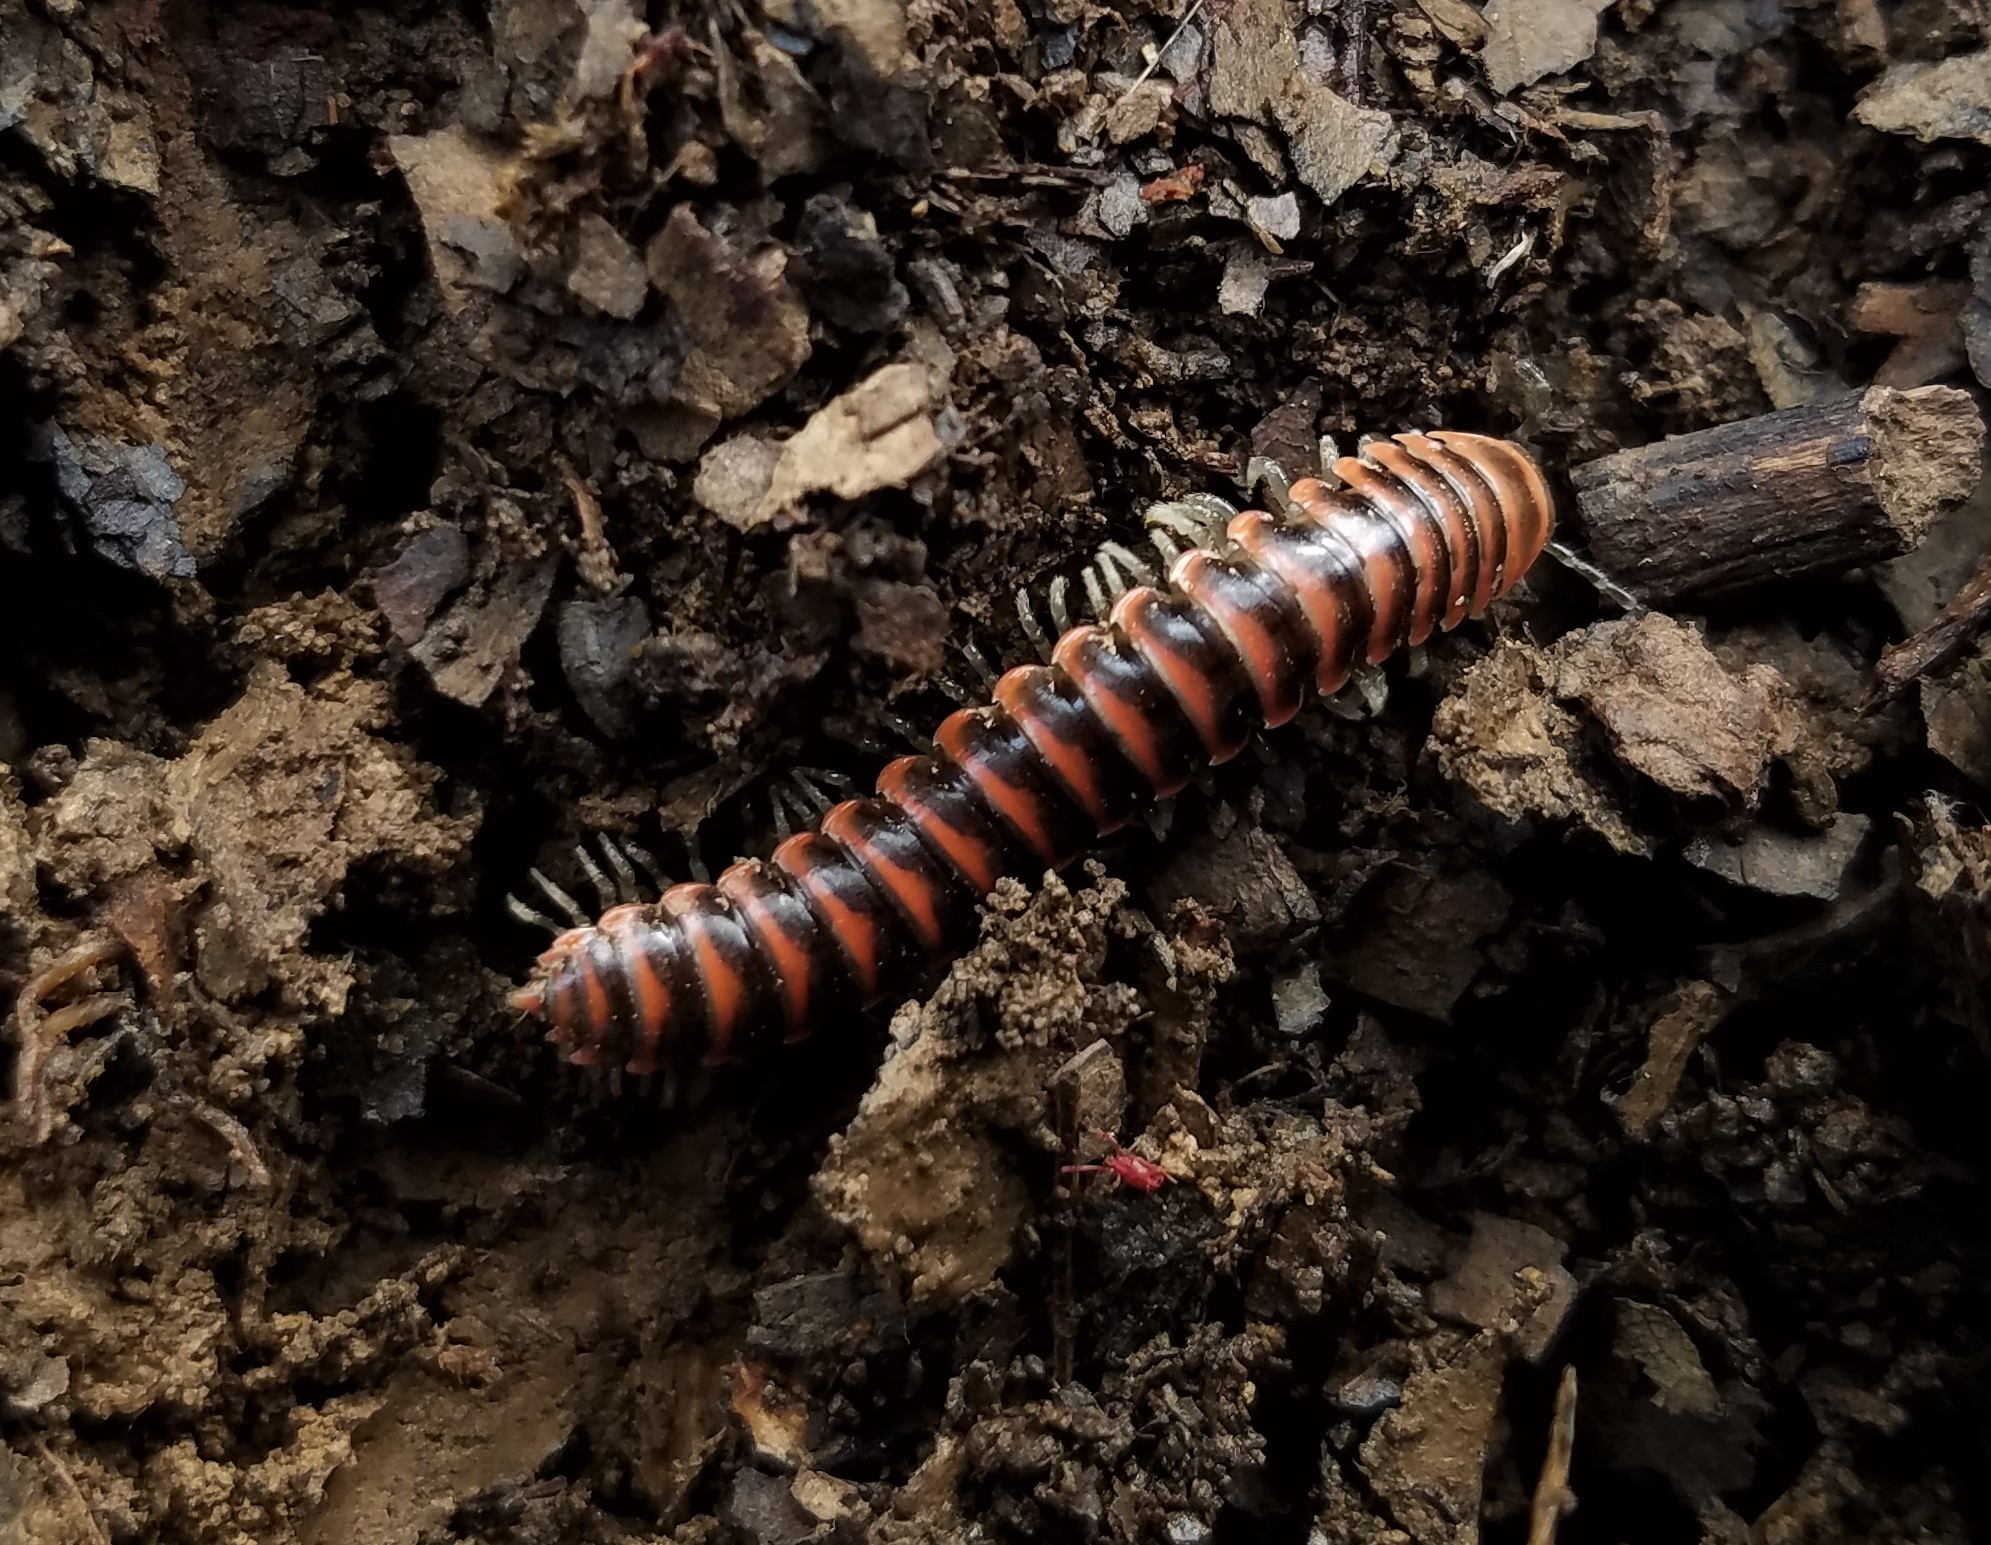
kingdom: Animalia
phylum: Arthropoda
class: Diplopoda
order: Polydesmida
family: Xystodesmidae
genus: Oenomaea
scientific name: Oenomaea pulchella
